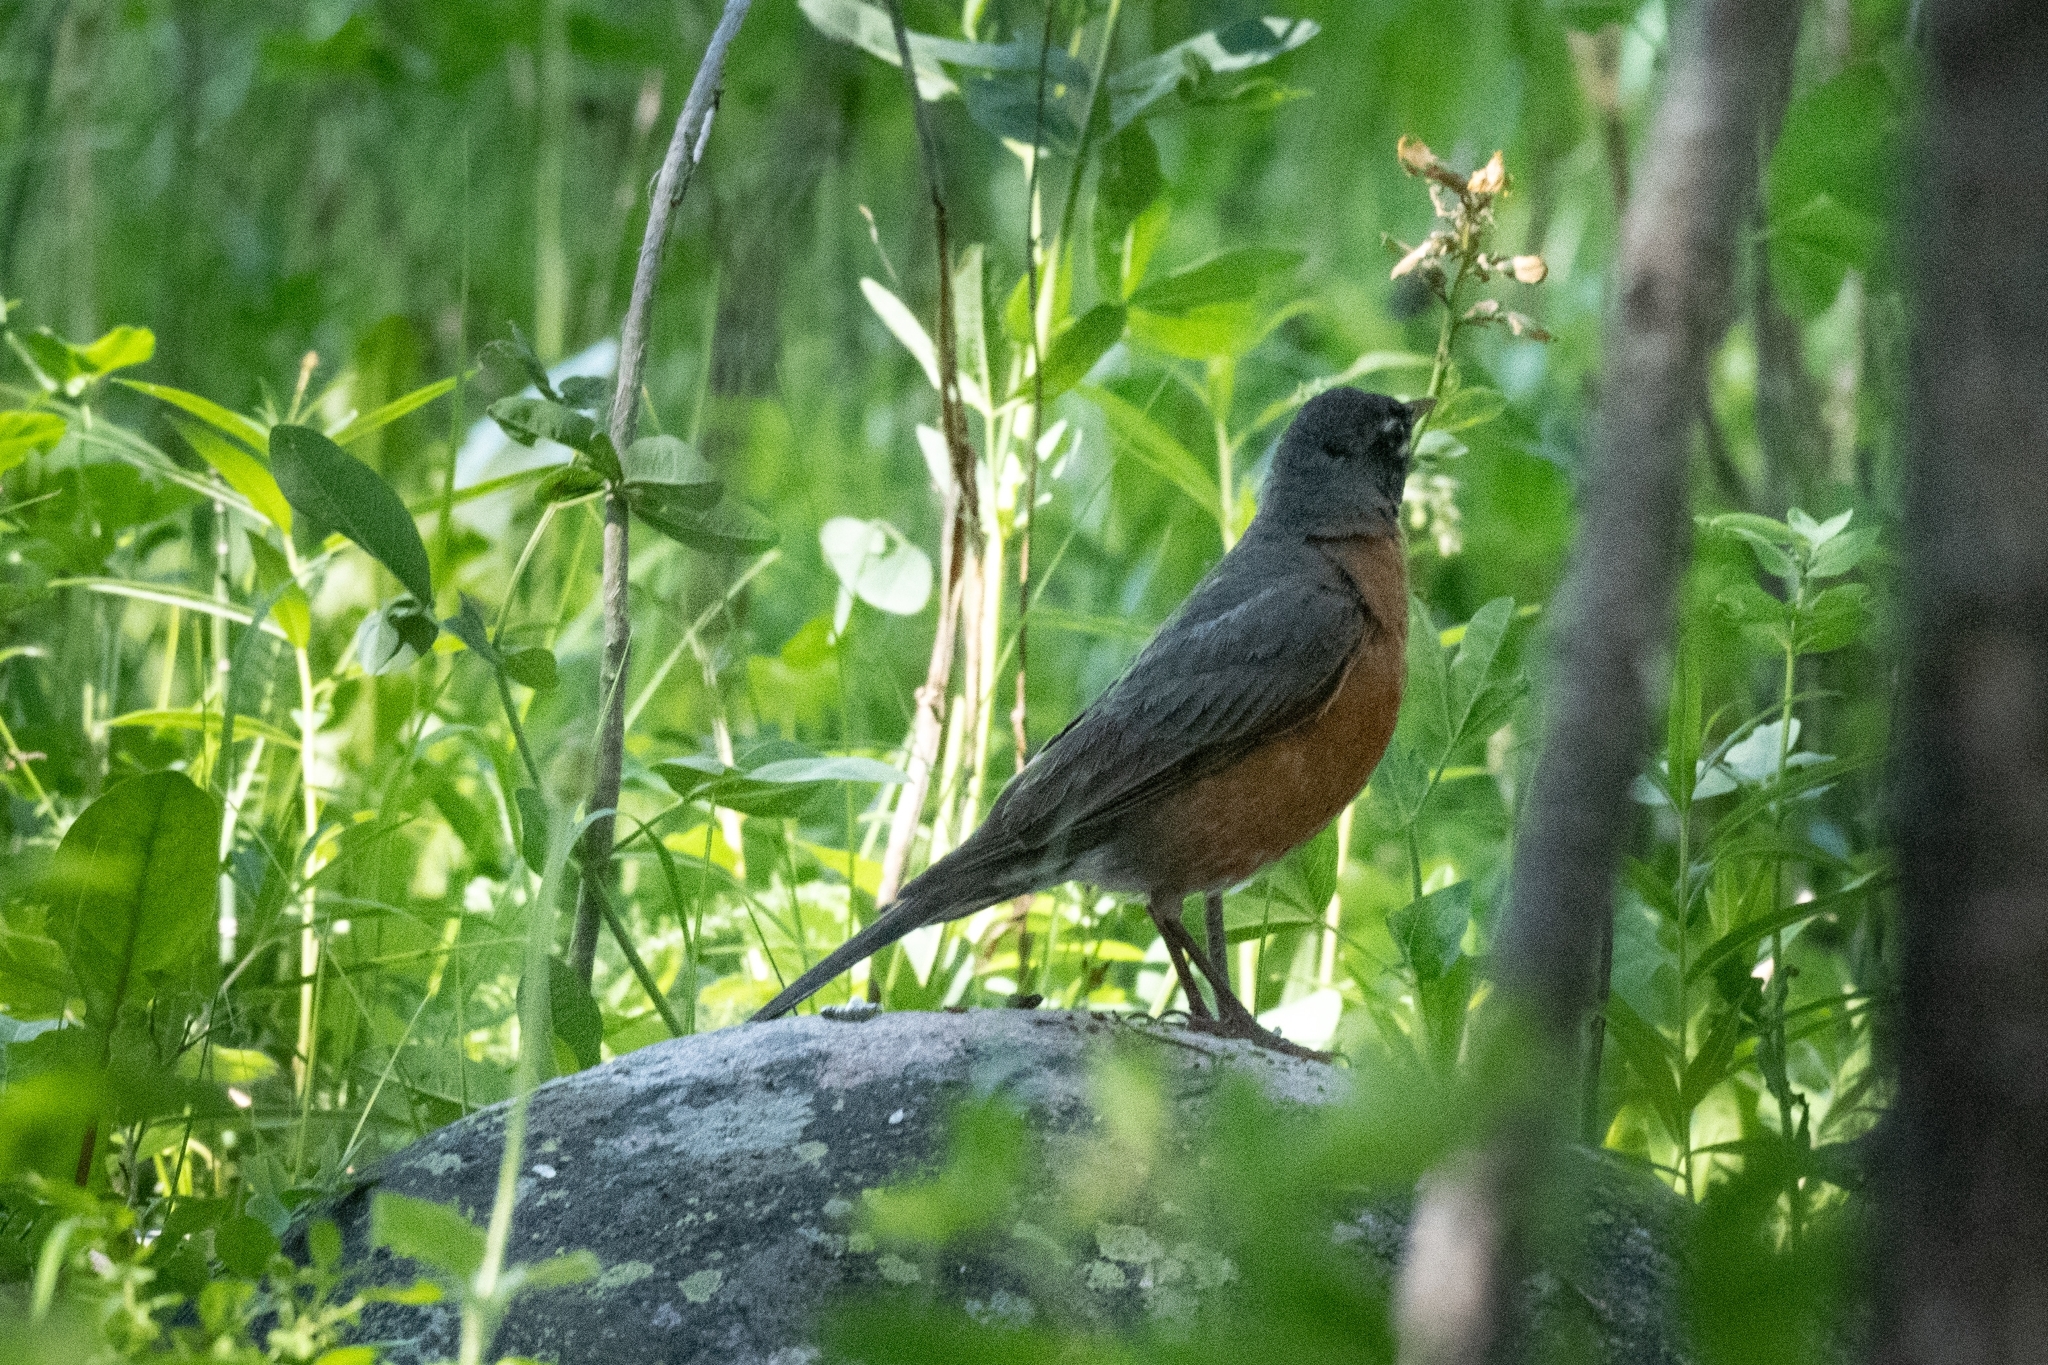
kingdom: Animalia
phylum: Chordata
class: Aves
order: Passeriformes
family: Turdidae
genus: Turdus
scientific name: Turdus migratorius
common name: American robin
